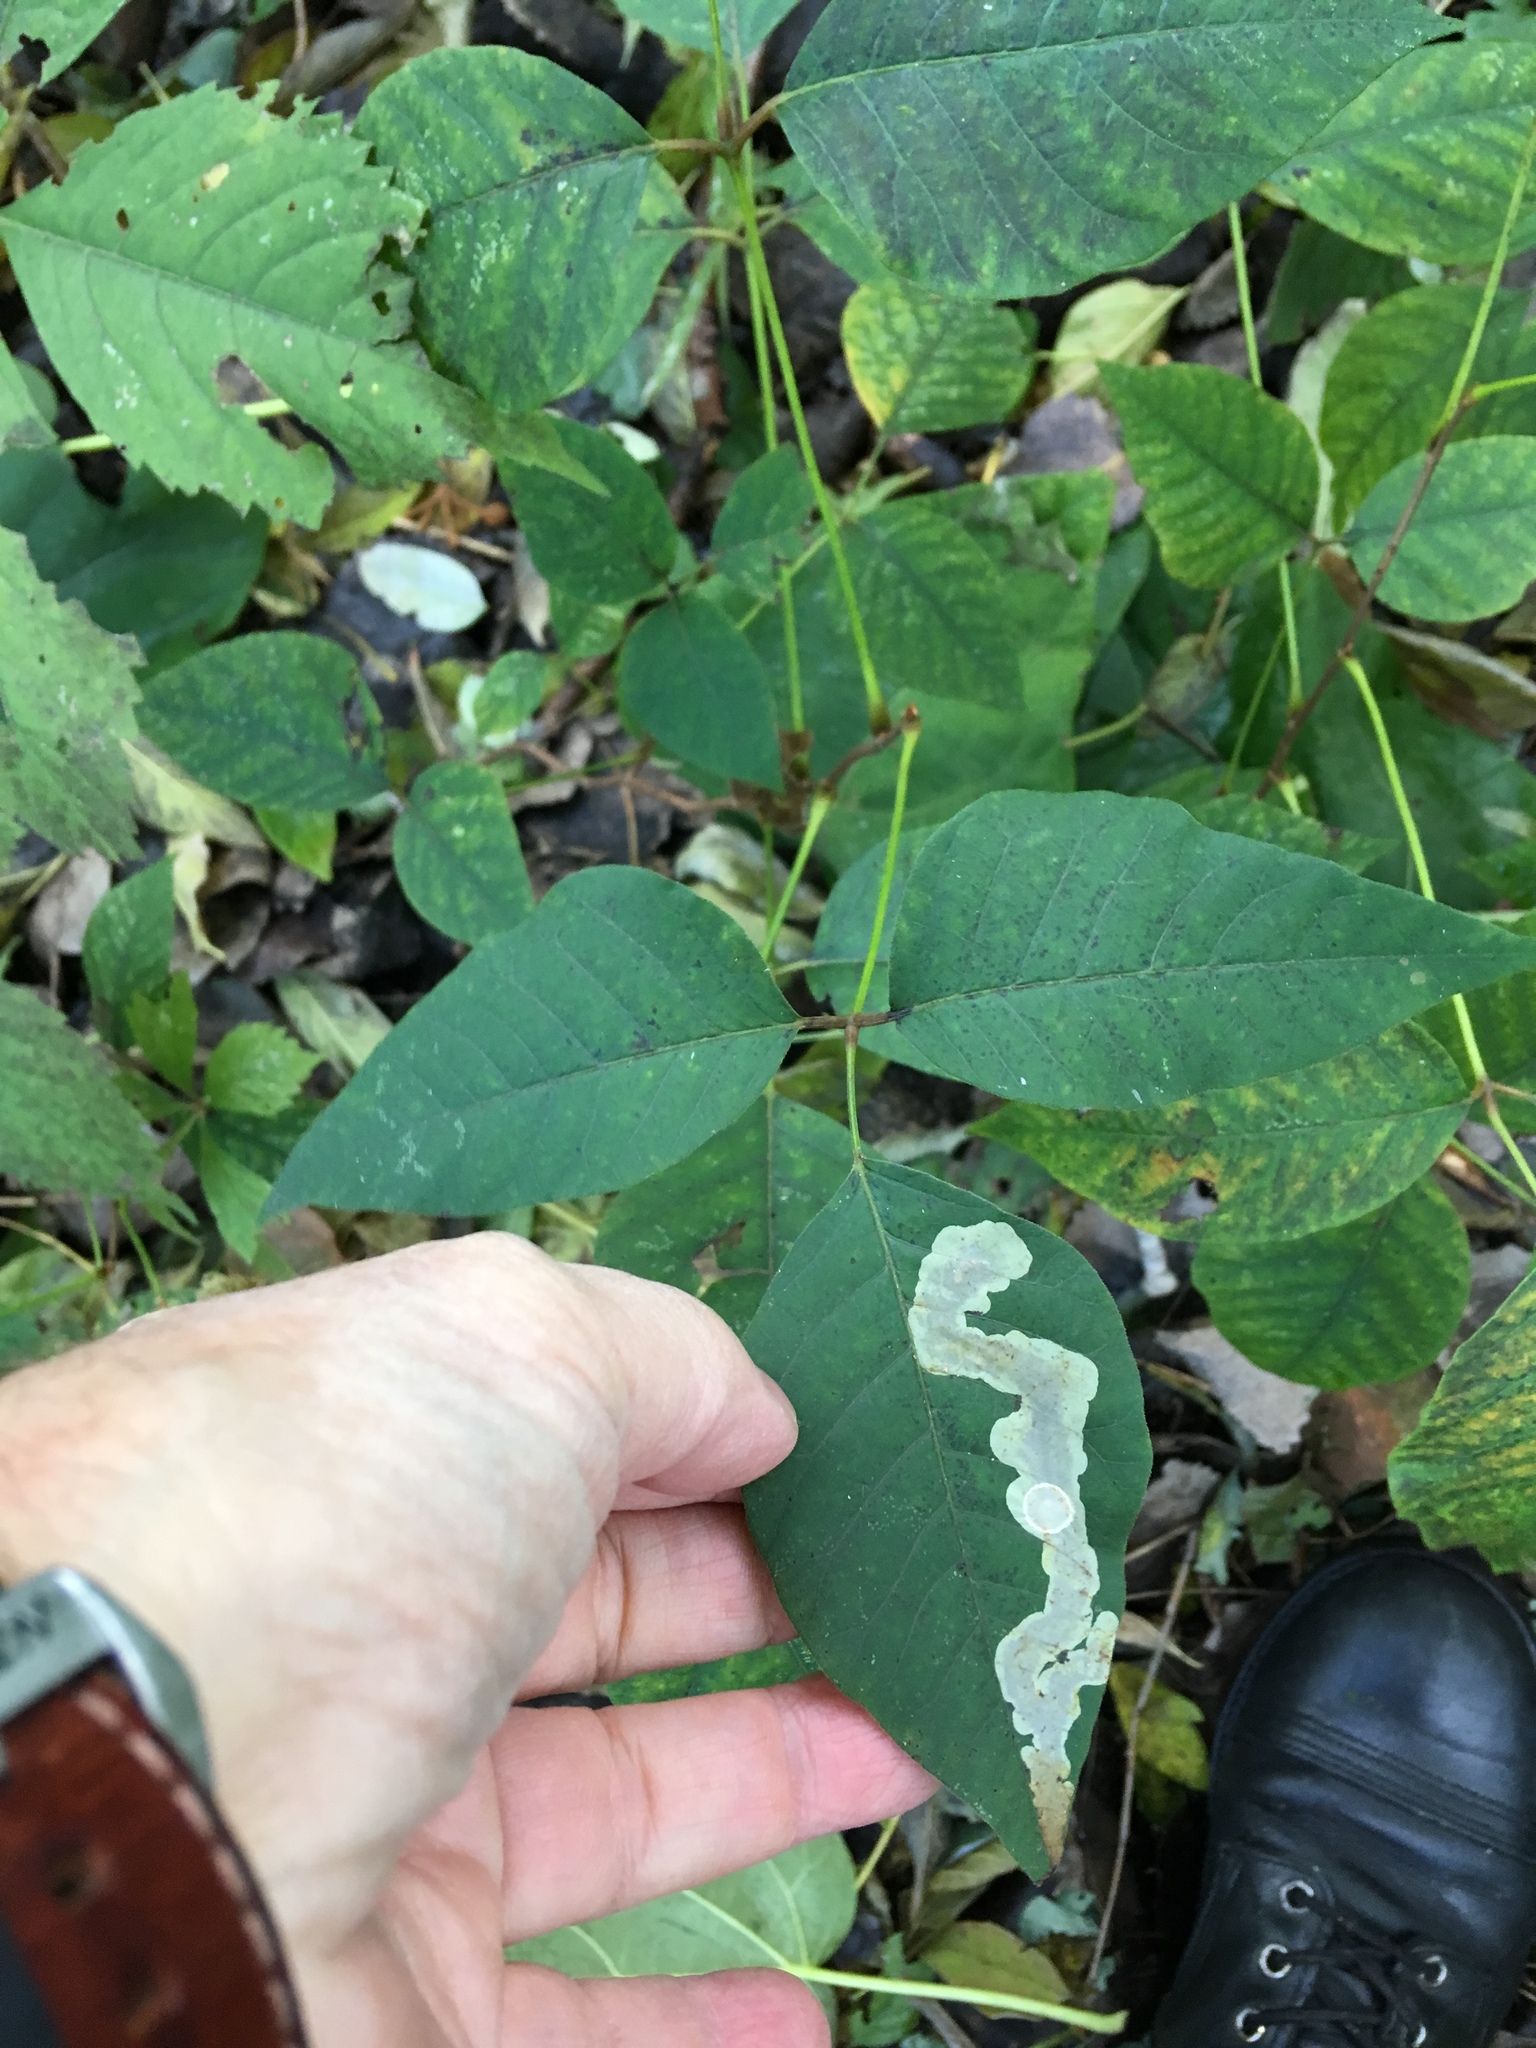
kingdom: Animalia
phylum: Arthropoda
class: Insecta
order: Lepidoptera
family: Gracillariidae
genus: Cameraria
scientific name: Cameraria guttifinitella
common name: Poison ivy leaf-miner moth
